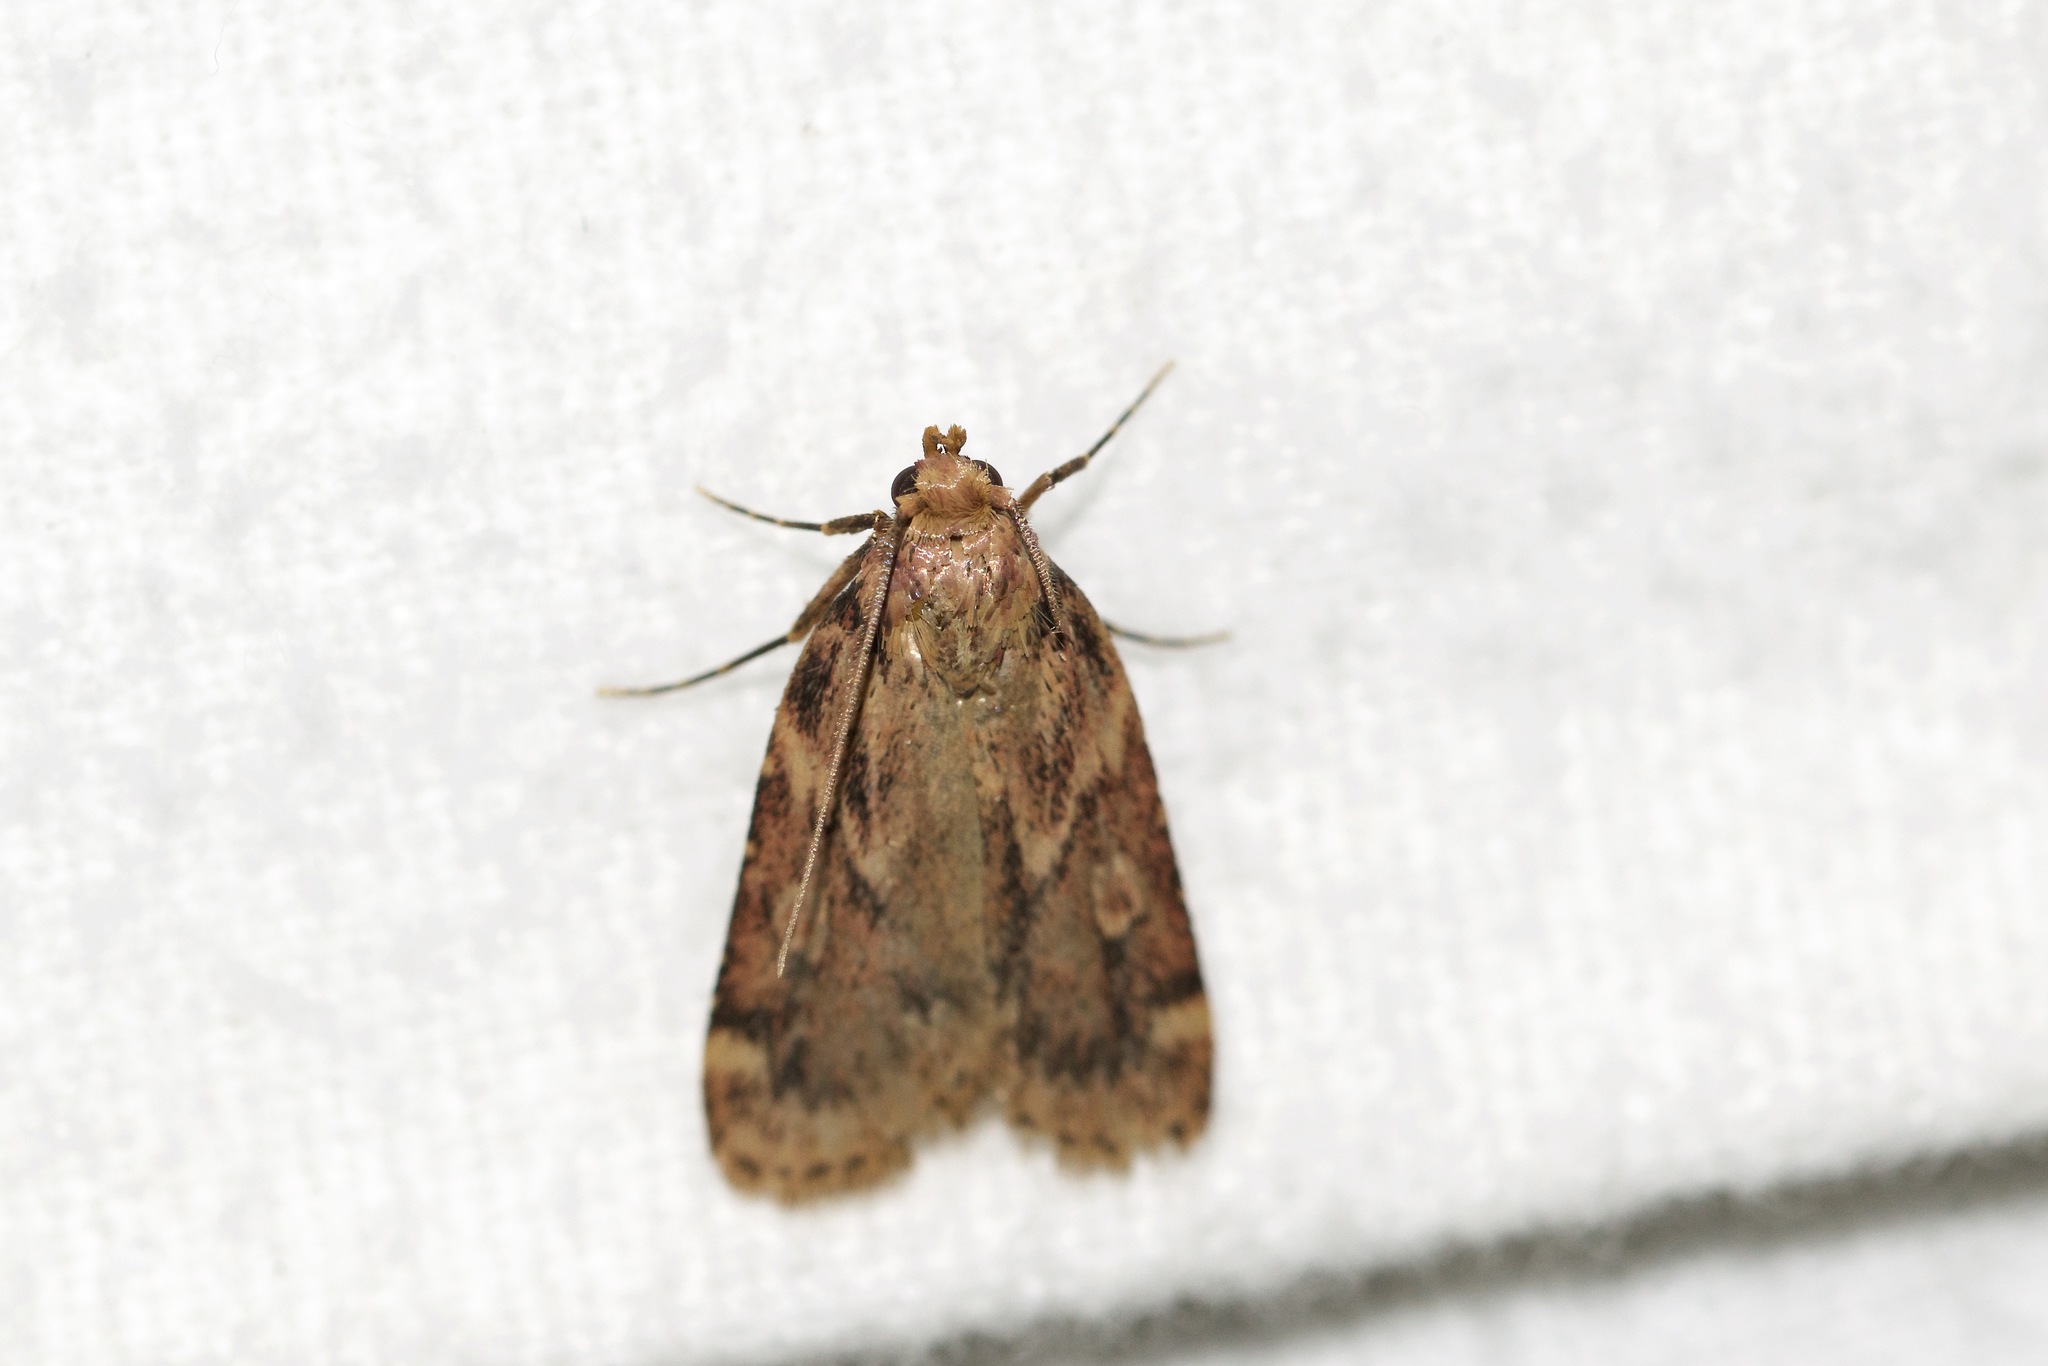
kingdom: Animalia
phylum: Arthropoda
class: Insecta
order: Lepidoptera
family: Pyralidae
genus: Aglossa
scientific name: Aglossa cuprina
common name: Grease moth
